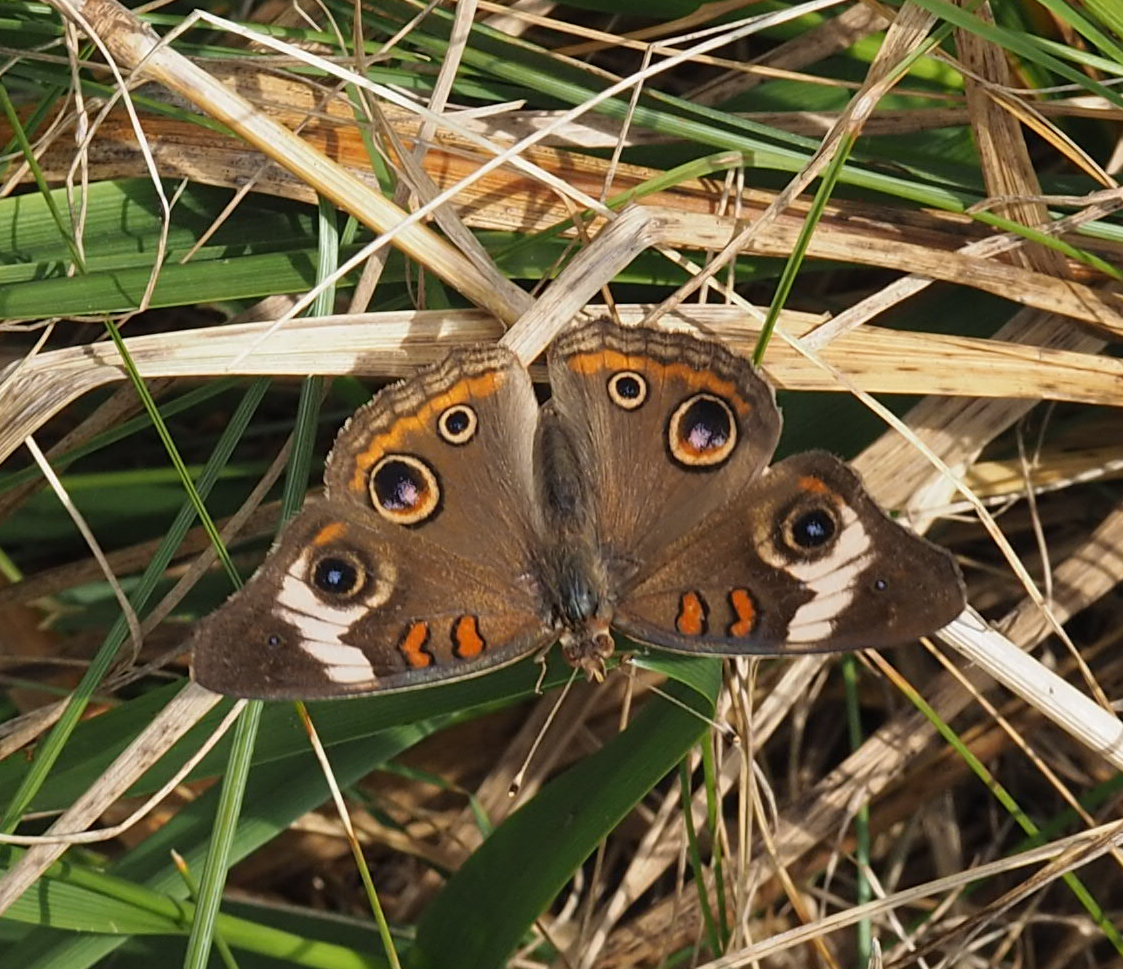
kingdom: Animalia
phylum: Arthropoda
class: Insecta
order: Lepidoptera
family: Nymphalidae
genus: Junonia
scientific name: Junonia coenia
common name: Common buckeye
